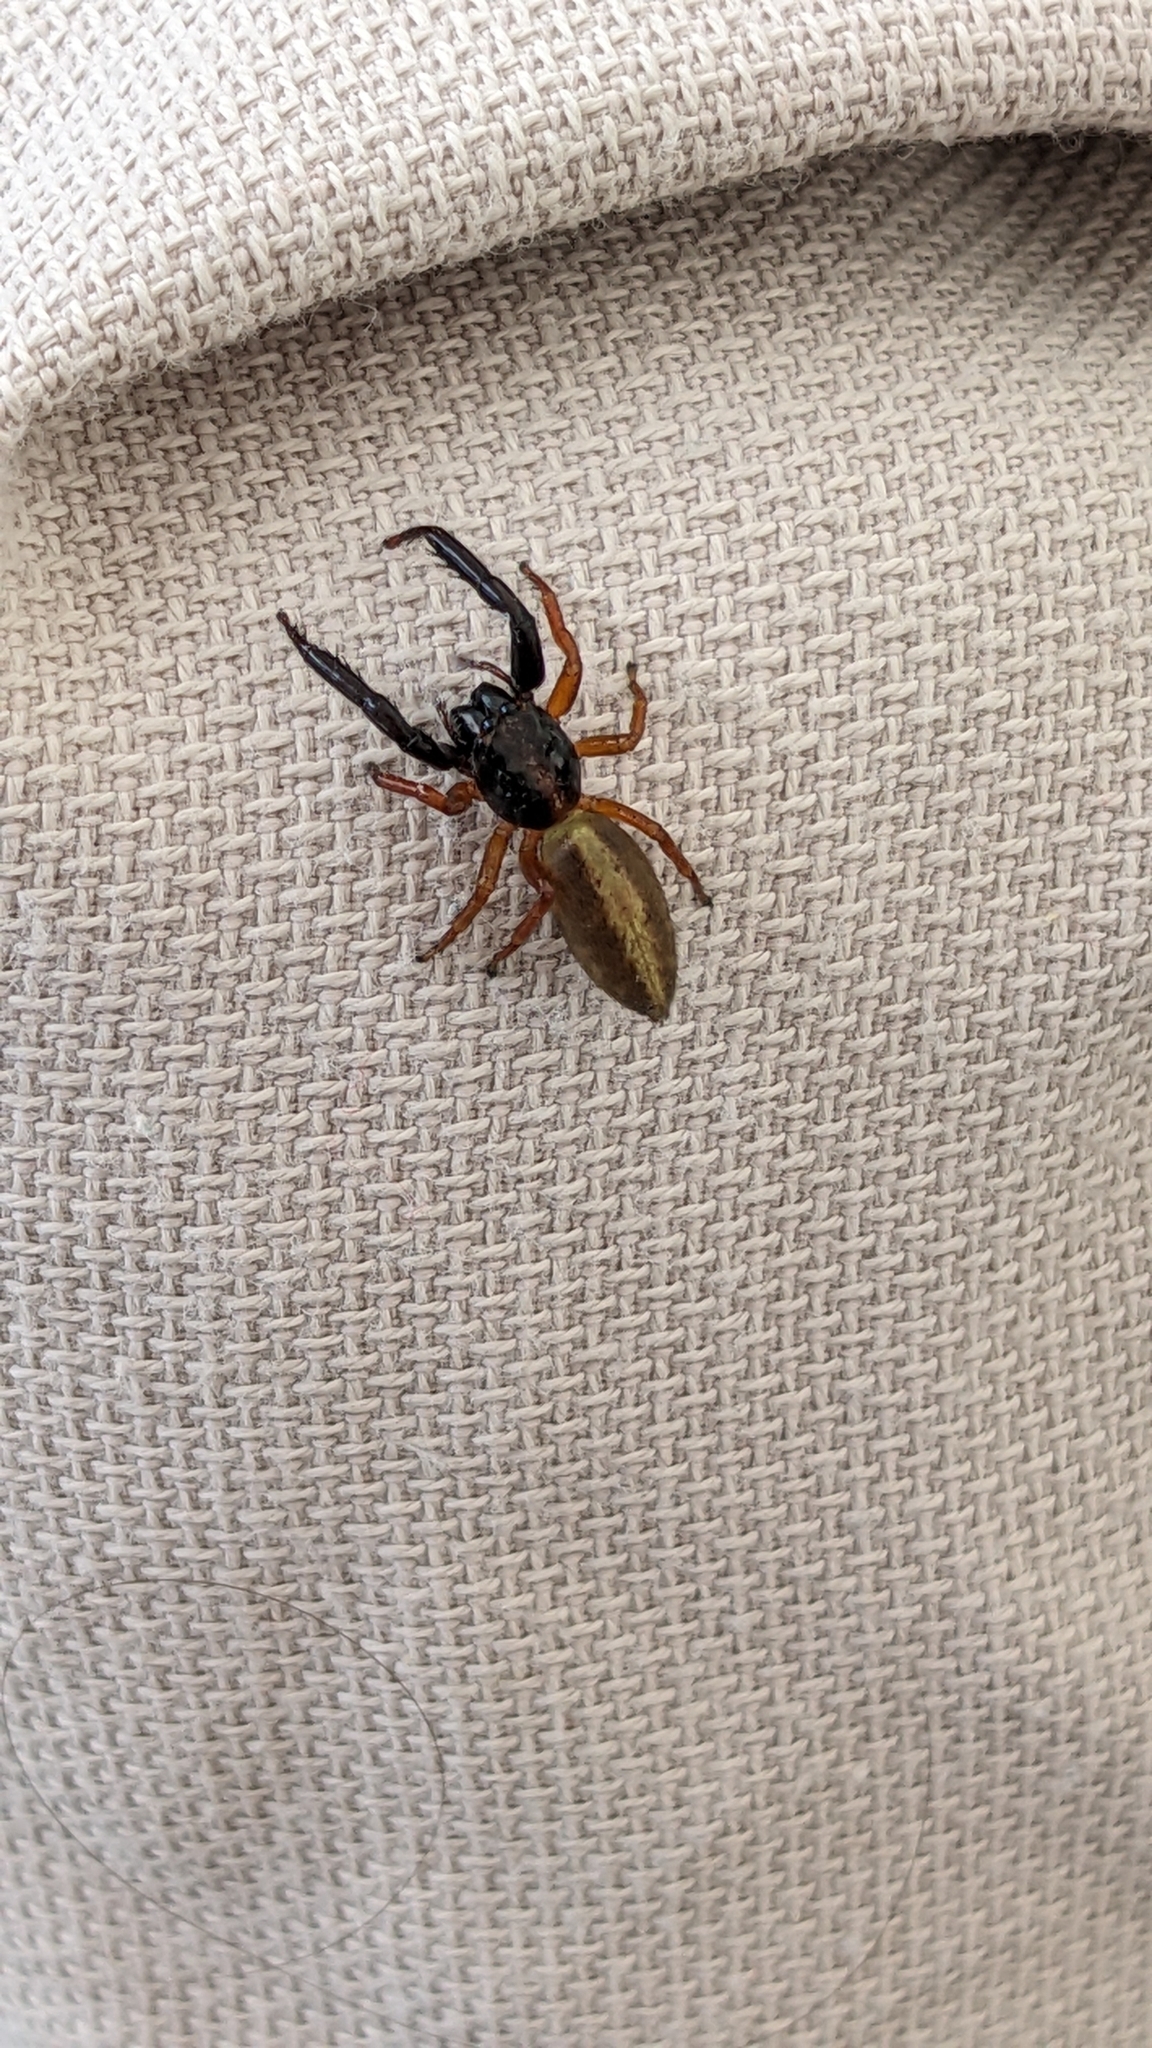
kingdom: Animalia
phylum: Arthropoda
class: Arachnida
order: Araneae
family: Salticidae
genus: Trite
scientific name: Trite planiceps
